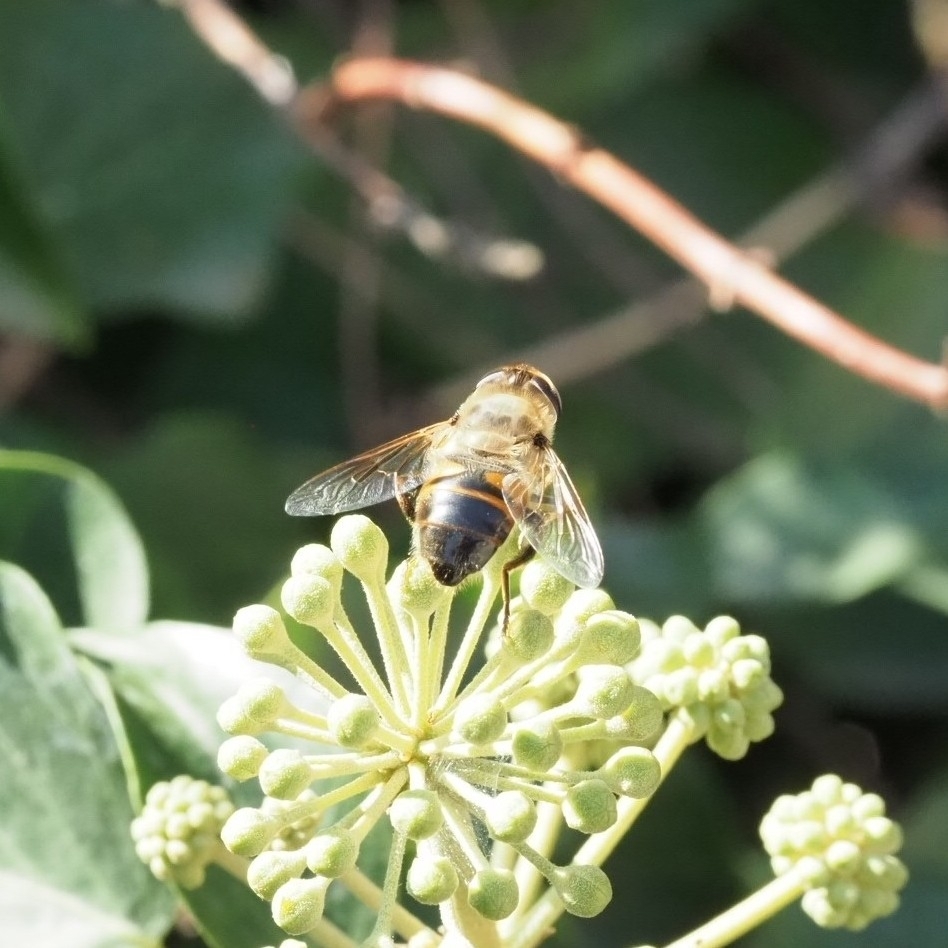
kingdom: Animalia
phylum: Arthropoda
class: Insecta
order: Diptera
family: Syrphidae
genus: Eristalis
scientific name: Eristalis tenax
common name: Drone fly
